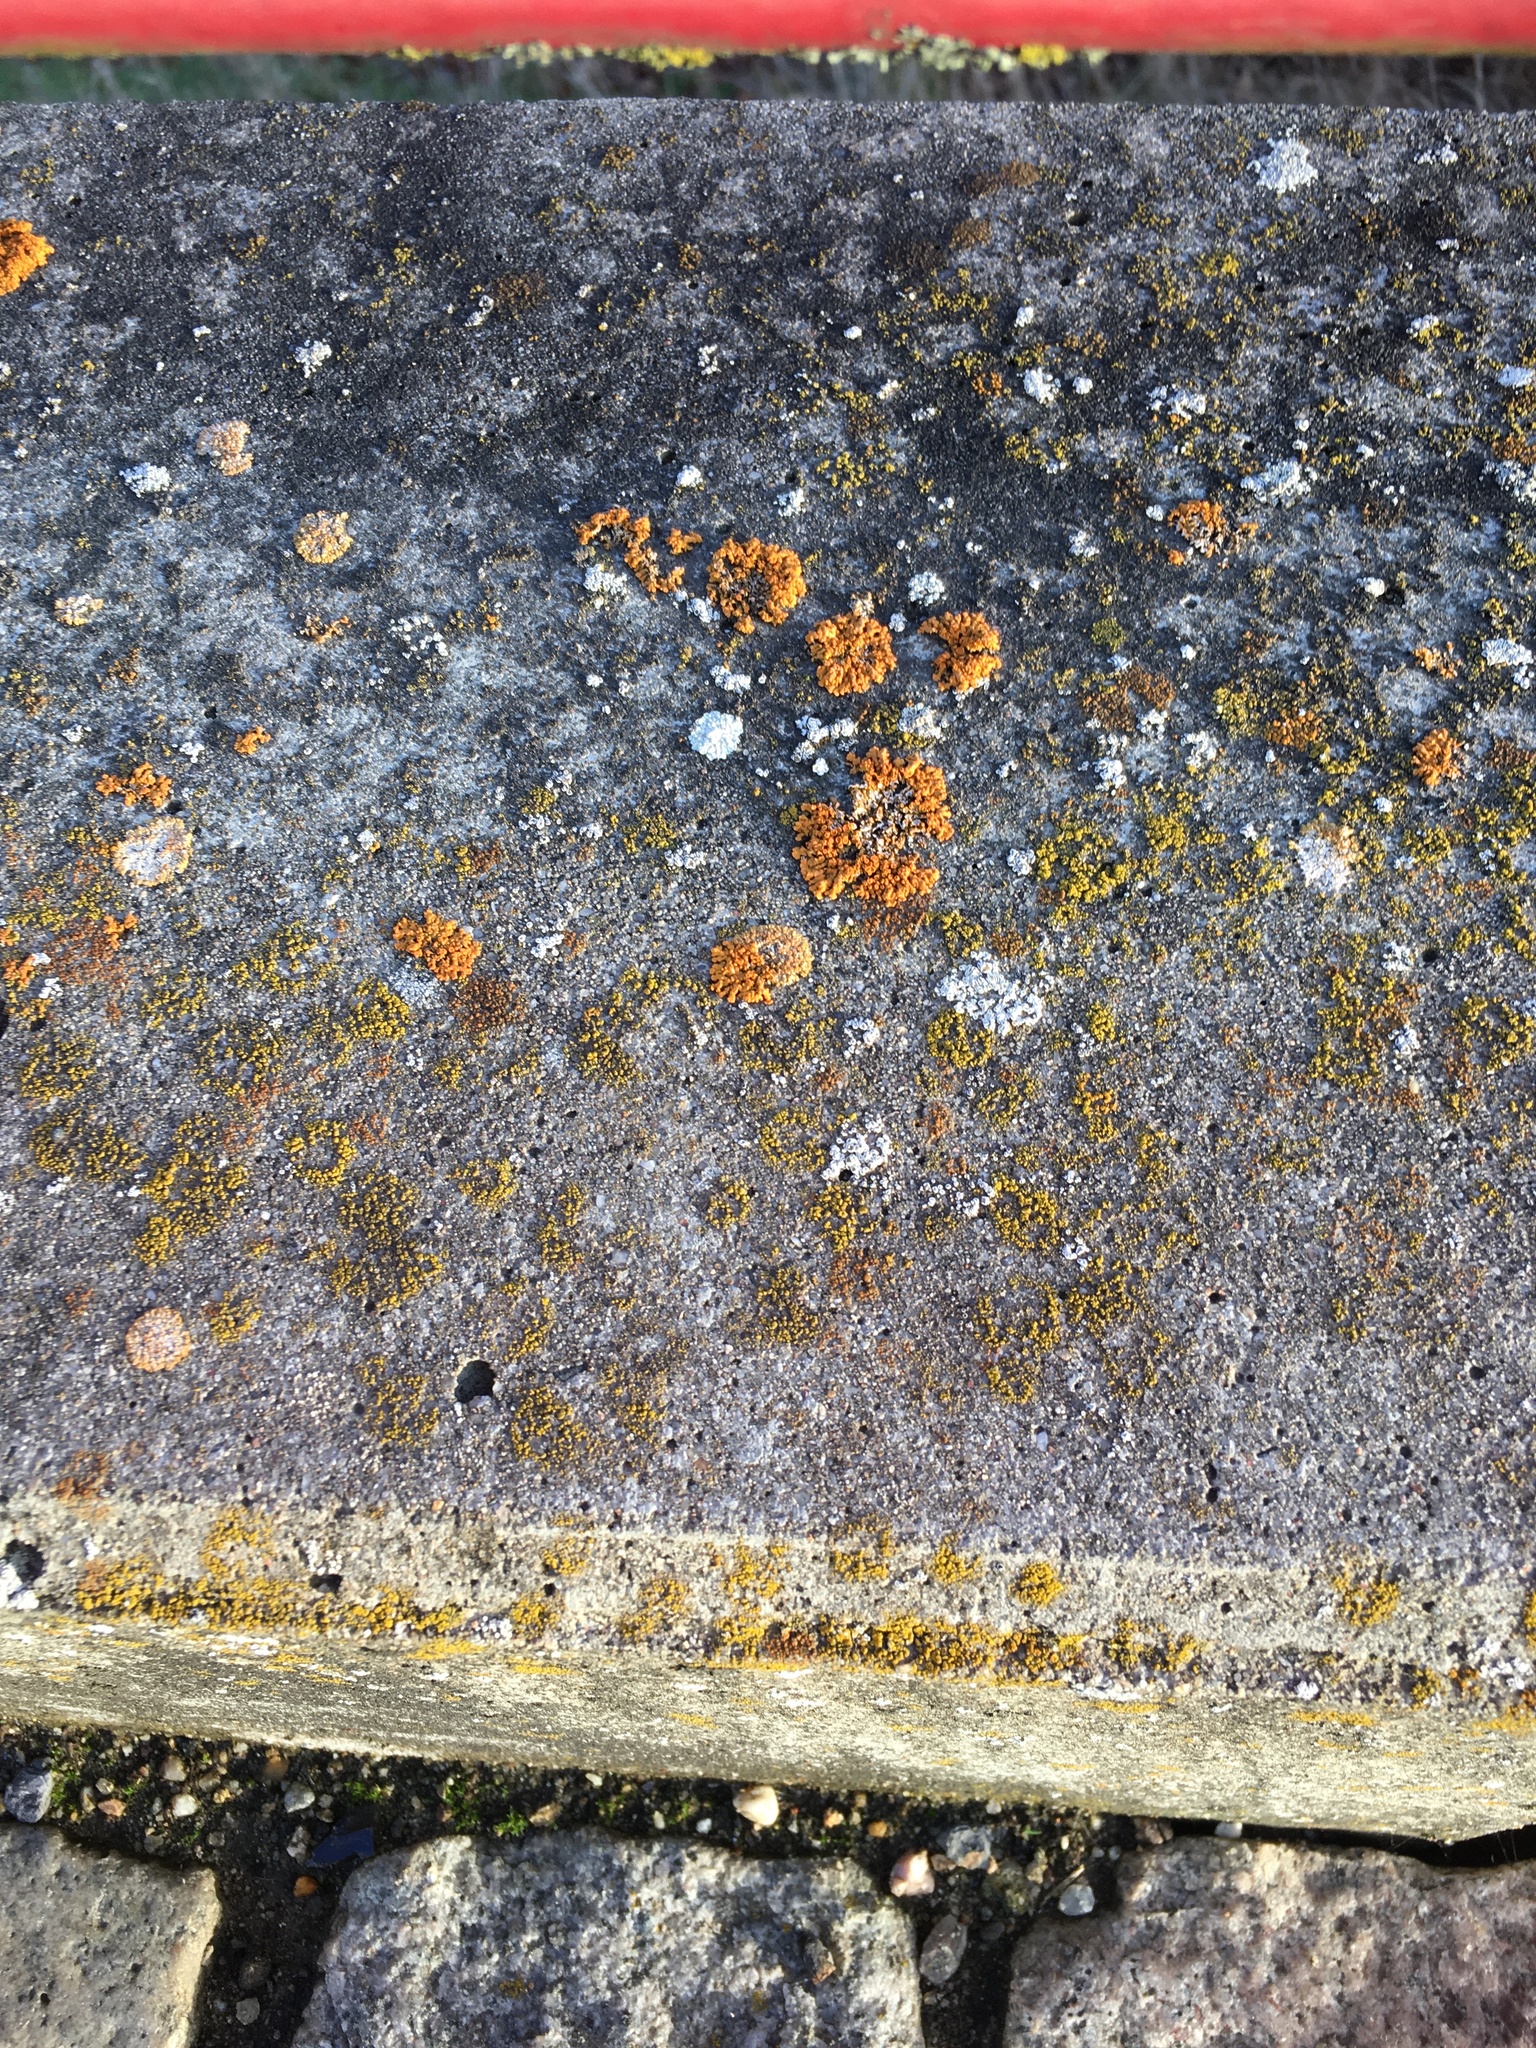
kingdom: Fungi
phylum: Ascomycota
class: Lecanoromycetes
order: Teloschistales
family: Teloschistaceae
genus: Xanthoria
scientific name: Xanthoria elegans
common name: Elegant sunburst lichen
